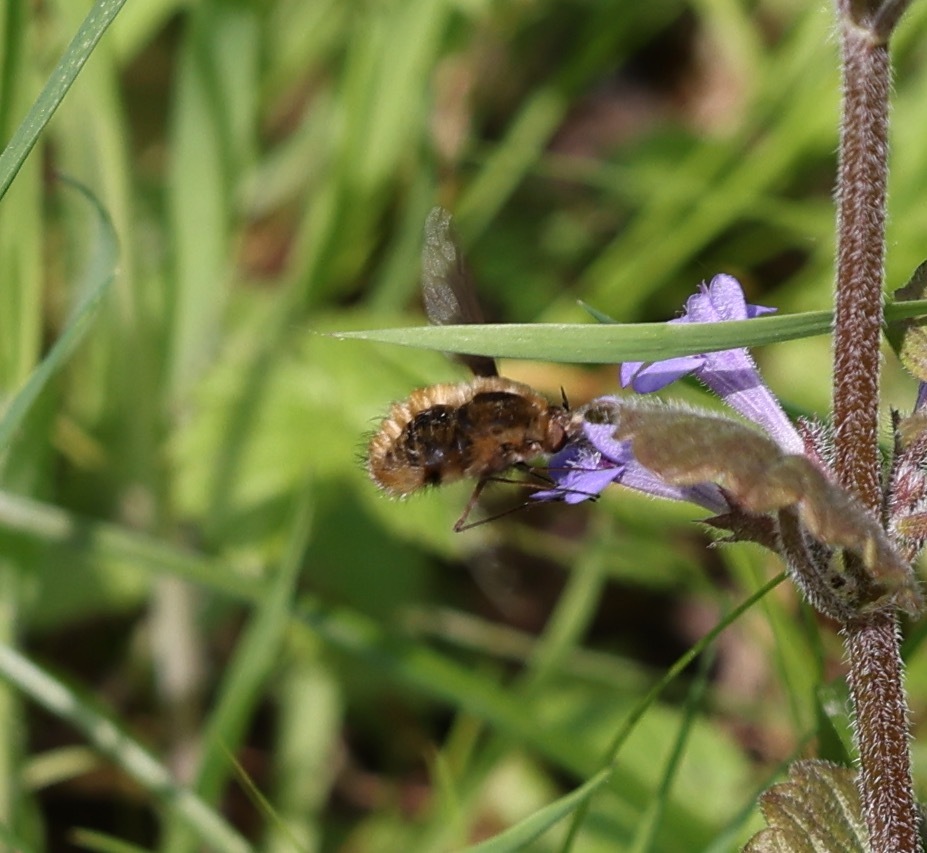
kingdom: Animalia
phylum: Arthropoda
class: Insecta
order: Diptera
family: Bombyliidae
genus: Bombylius
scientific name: Bombylius major
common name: Bee fly
